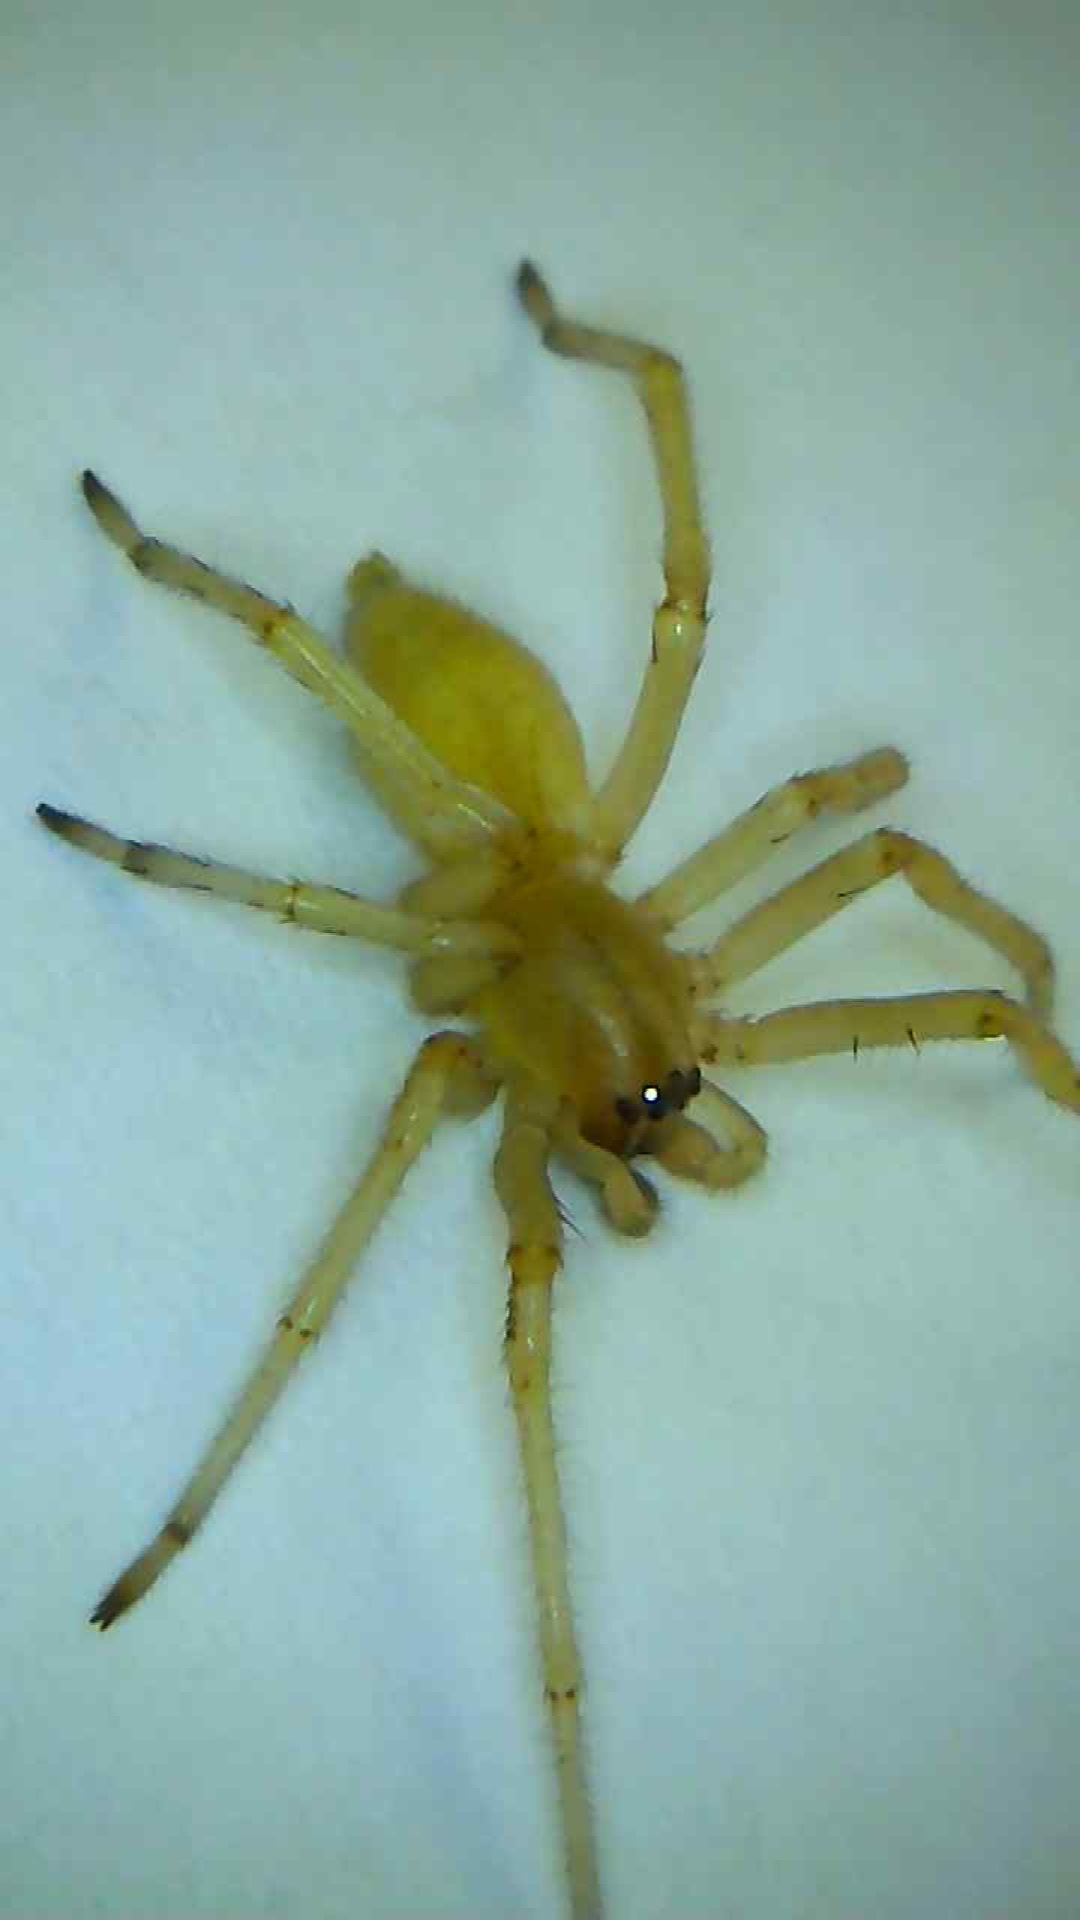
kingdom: Animalia
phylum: Arthropoda
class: Arachnida
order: Araneae
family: Cheiracanthiidae
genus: Cheiracanthium
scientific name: Cheiracanthium mildei
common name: Northern yellow sac spider
